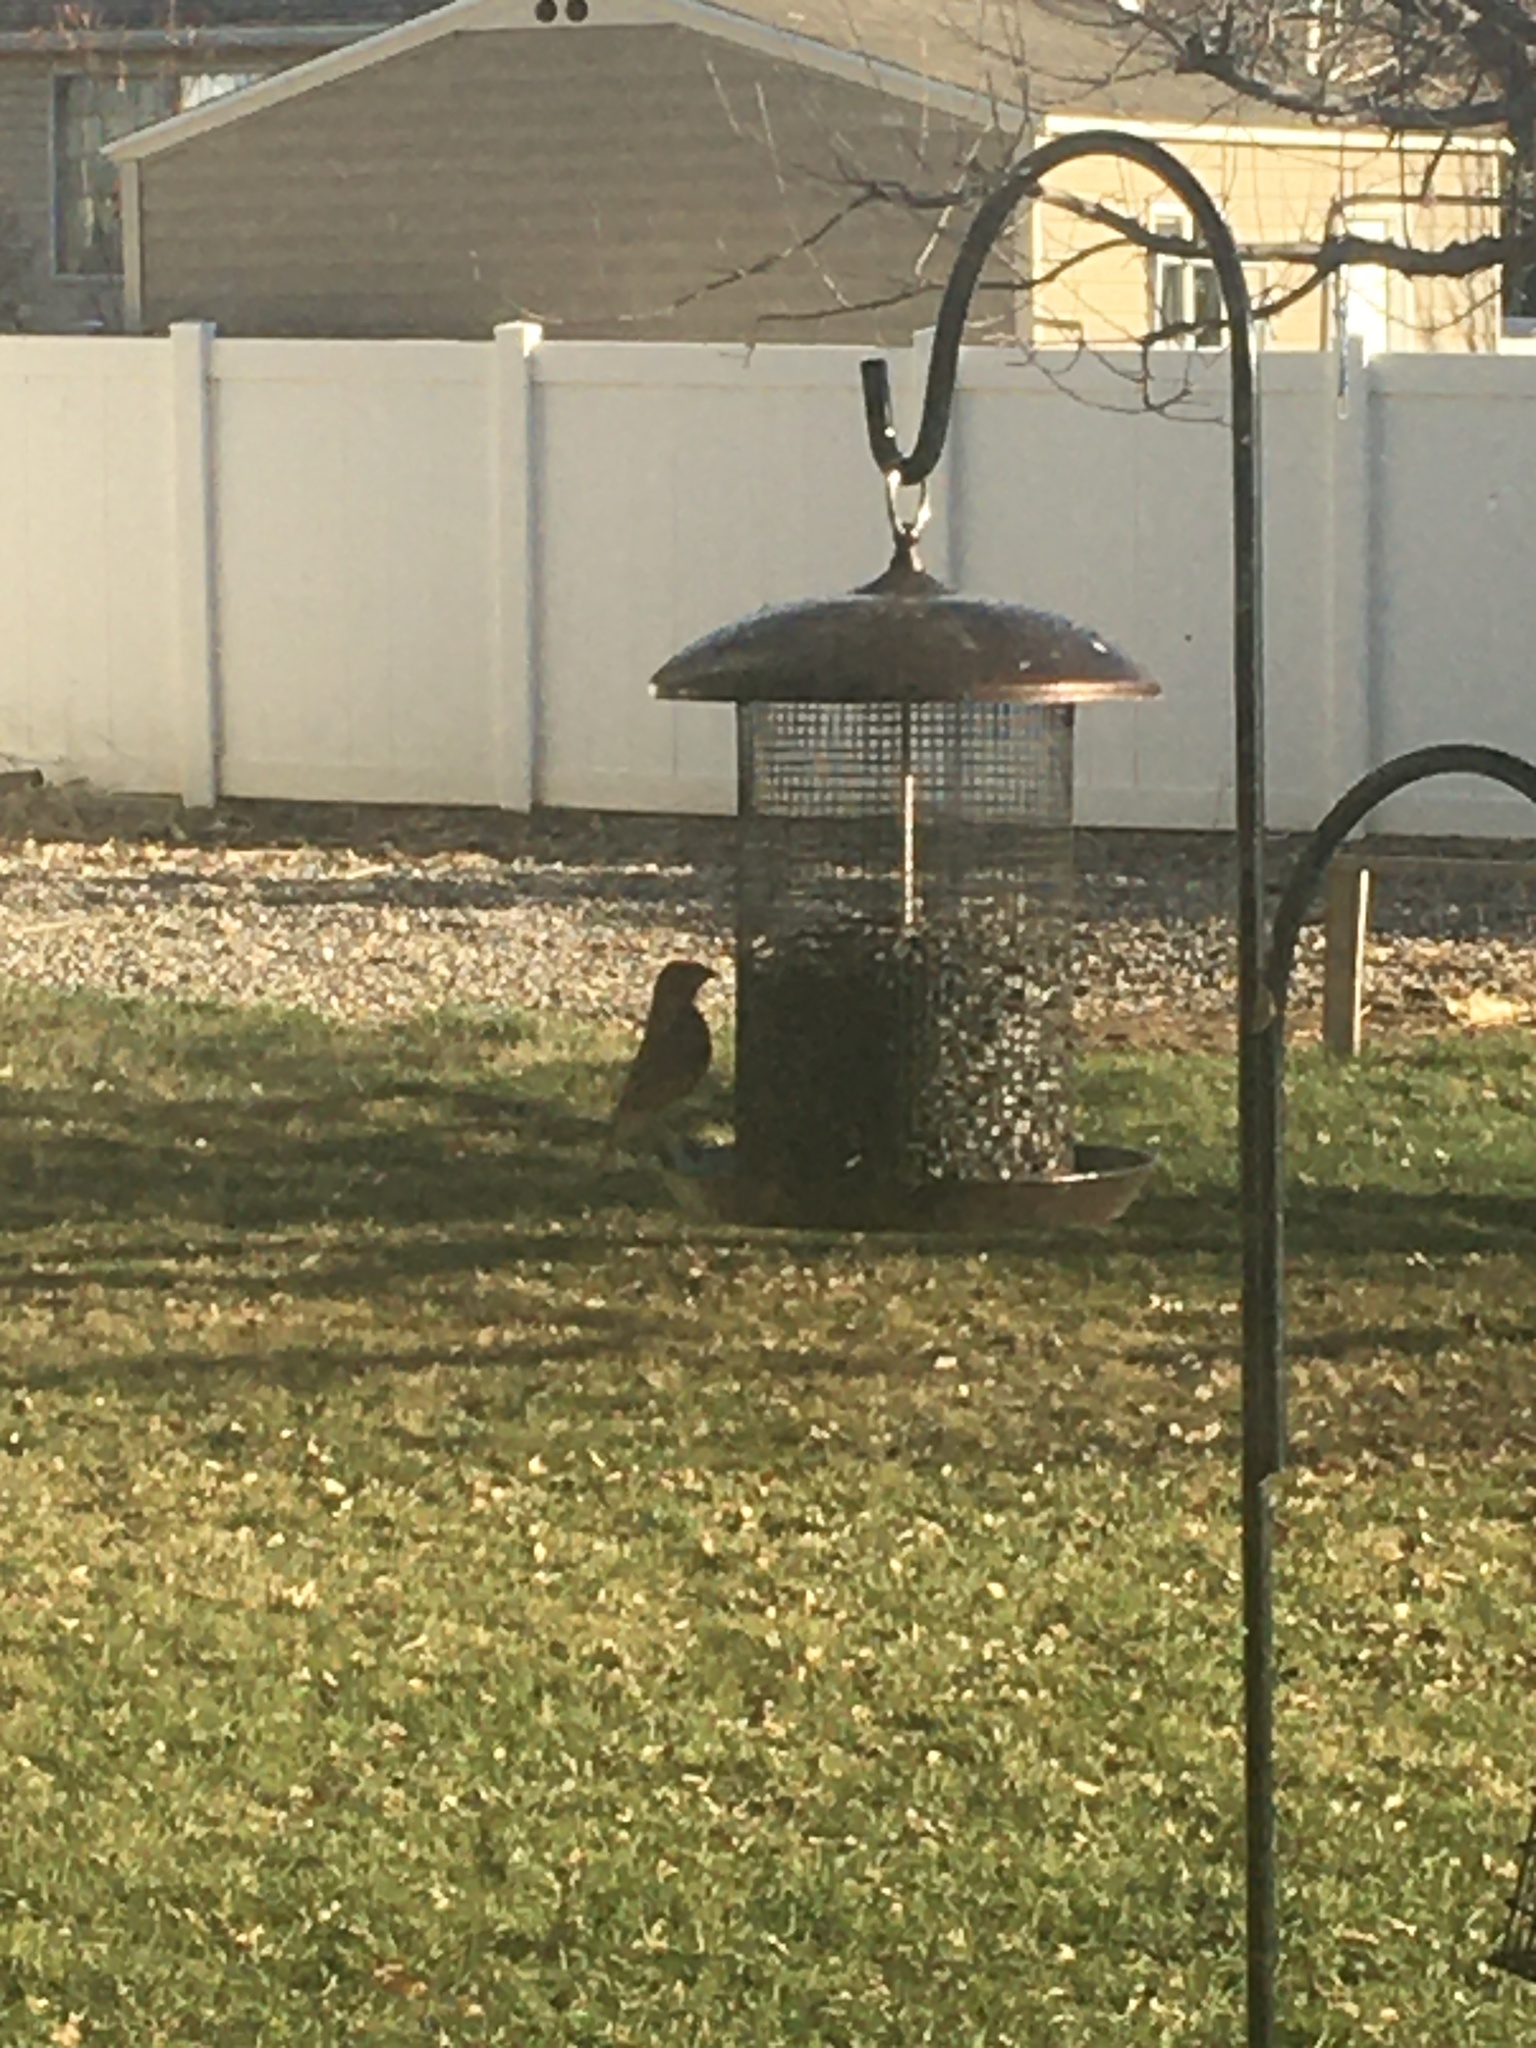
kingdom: Animalia
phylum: Chordata
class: Aves
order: Passeriformes
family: Fringillidae
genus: Haemorhous
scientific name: Haemorhous mexicanus
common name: House finch
